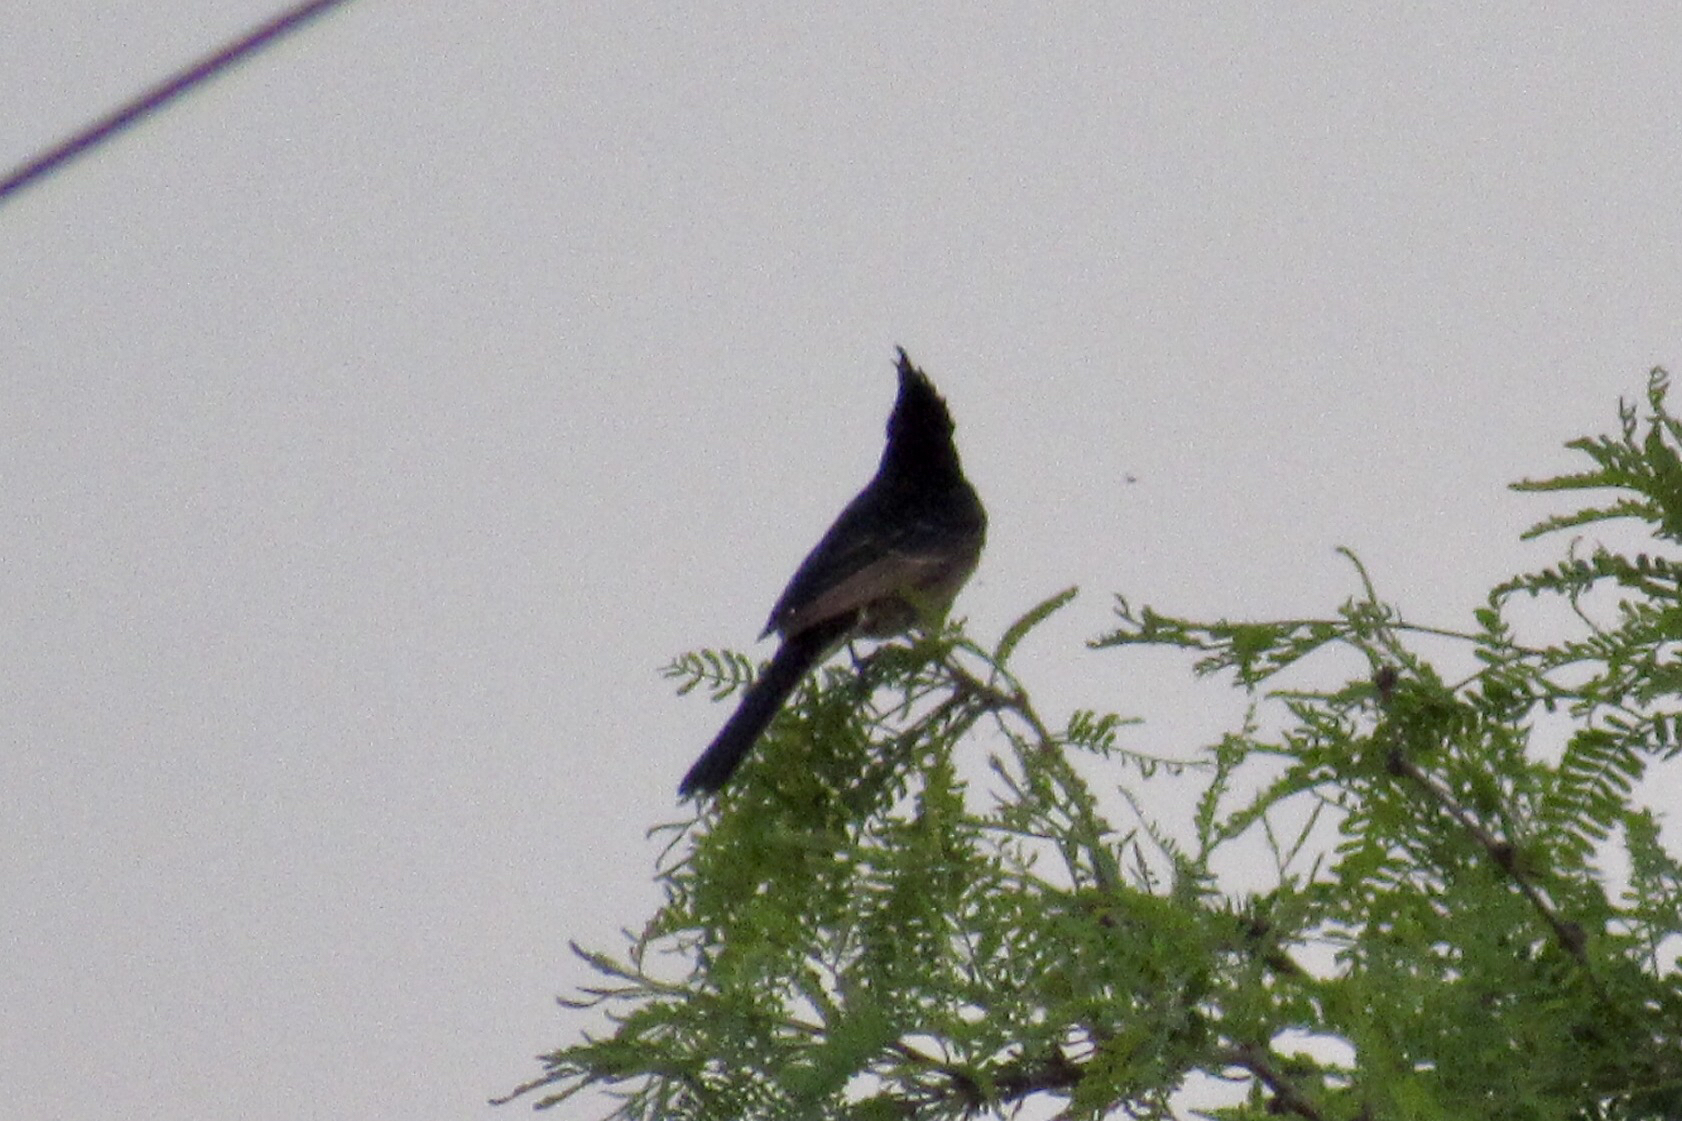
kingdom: Animalia
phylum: Chordata
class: Aves
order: Passeriformes
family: Ptilogonatidae
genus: Phainopepla
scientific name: Phainopepla nitens
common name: Phainopepla
